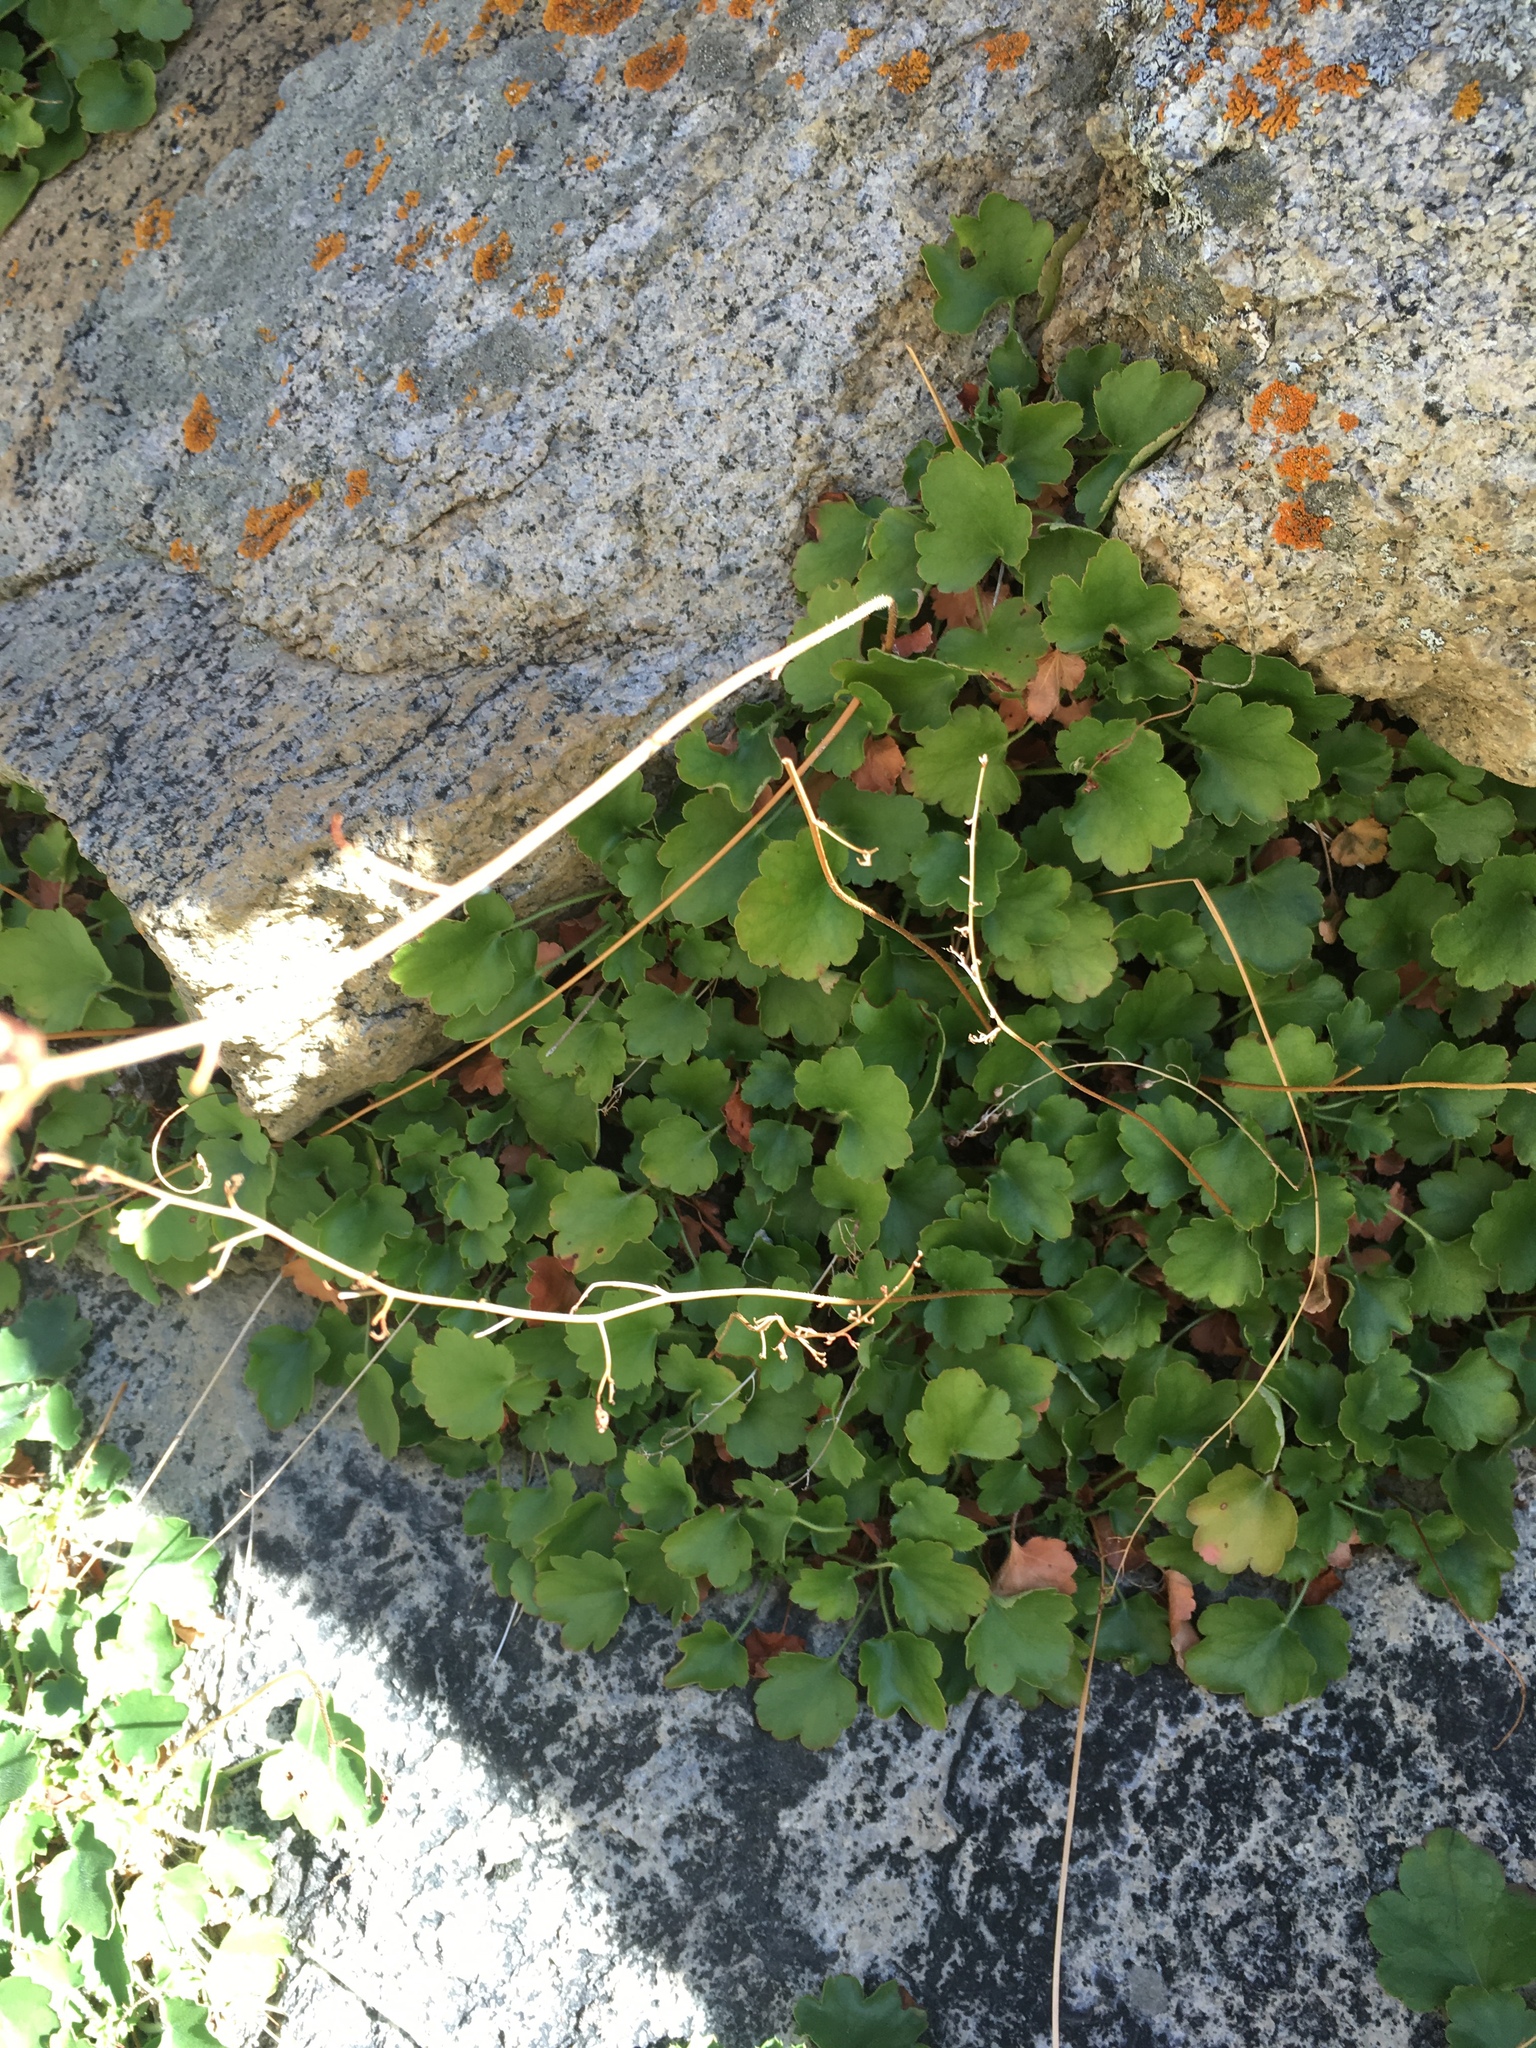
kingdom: Plantae
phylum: Tracheophyta
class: Magnoliopsida
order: Saxifragales
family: Saxifragaceae
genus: Heuchera
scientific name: Heuchera rubescens
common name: Jack-o'the-rocks
